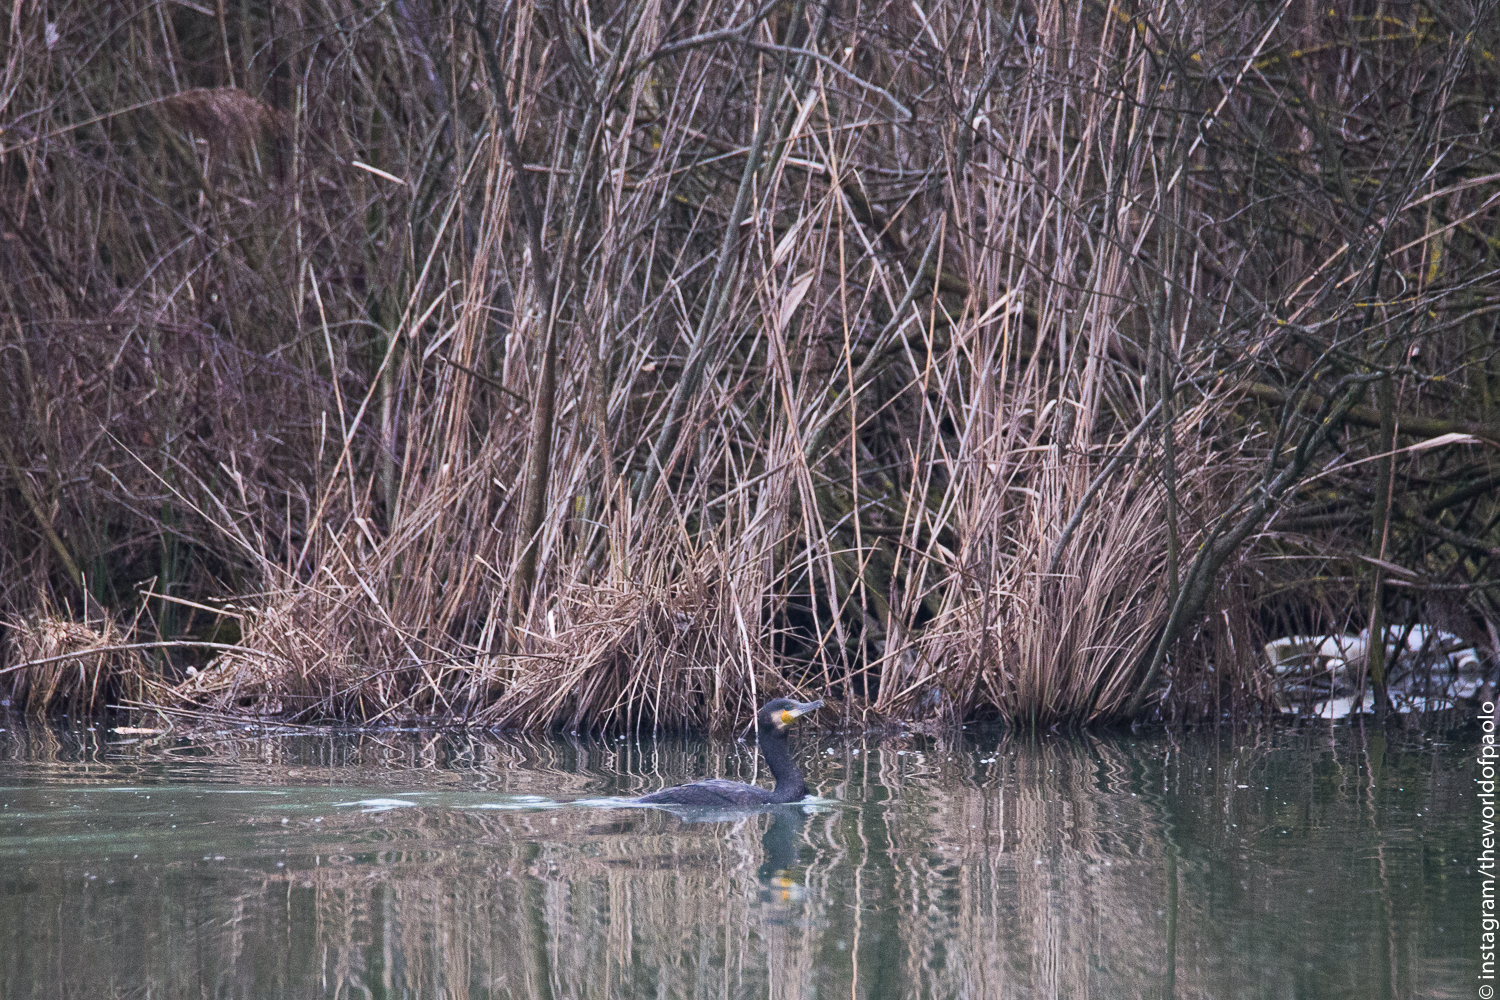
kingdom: Animalia
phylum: Chordata
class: Aves
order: Suliformes
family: Phalacrocoracidae
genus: Phalacrocorax
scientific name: Phalacrocorax carbo
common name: Great cormorant
